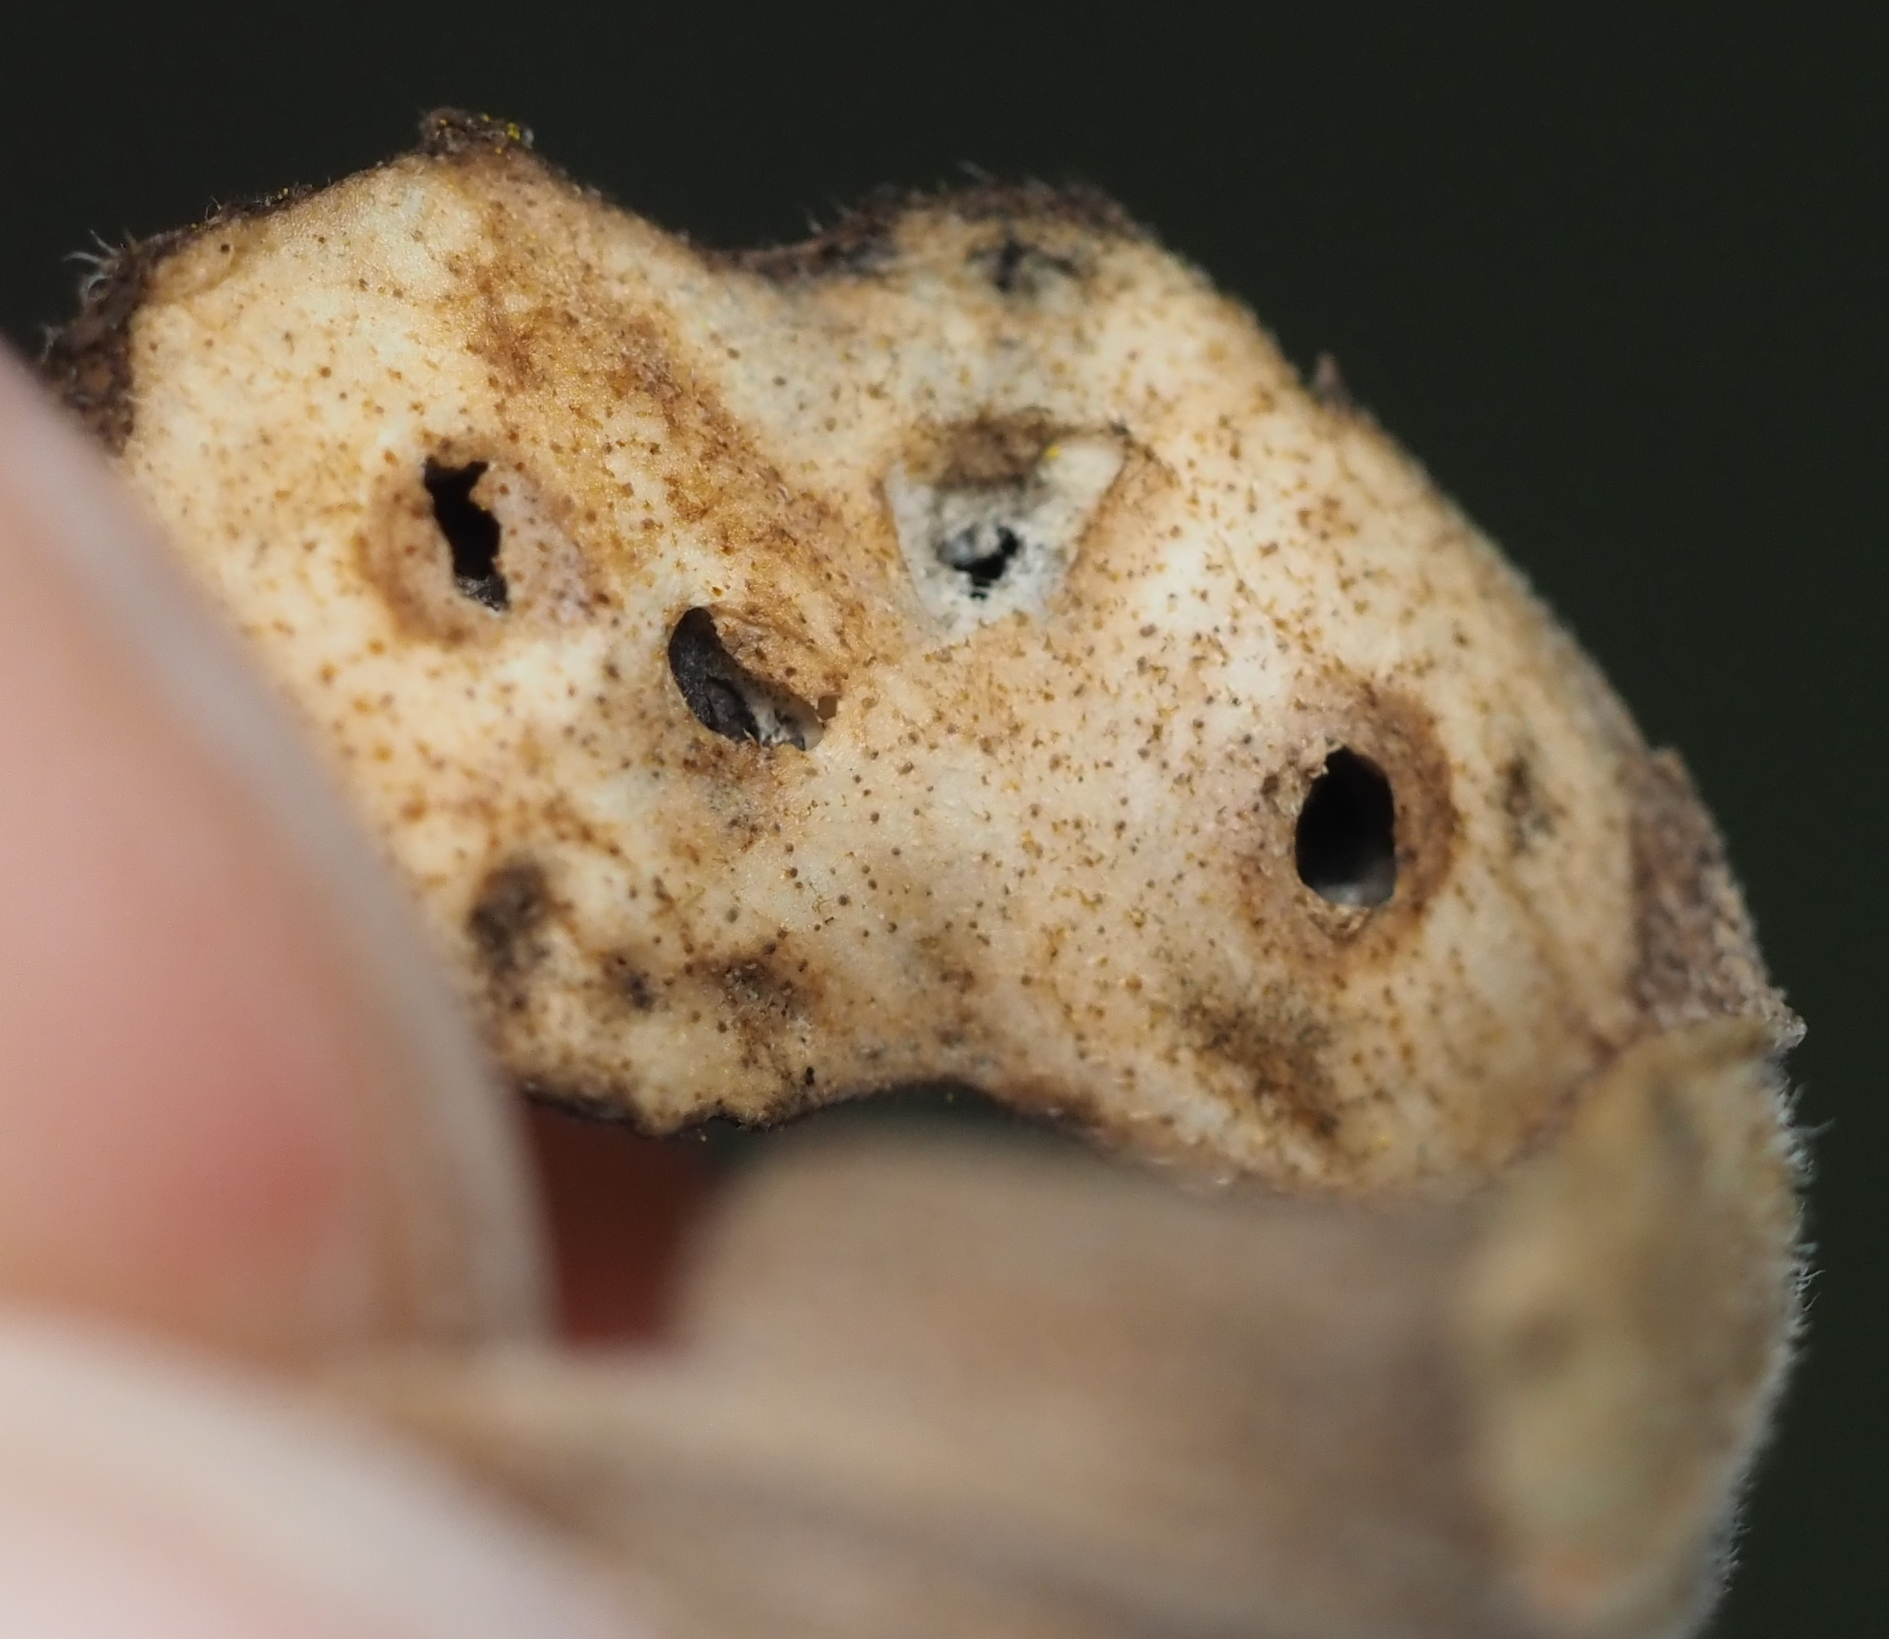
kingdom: Animalia
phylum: Arthropoda
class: Insecta
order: Diptera
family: Cecidomyiidae
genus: Asteromyia
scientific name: Asteromyia carbonifera
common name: Carbonifera goldenrod gall midge
